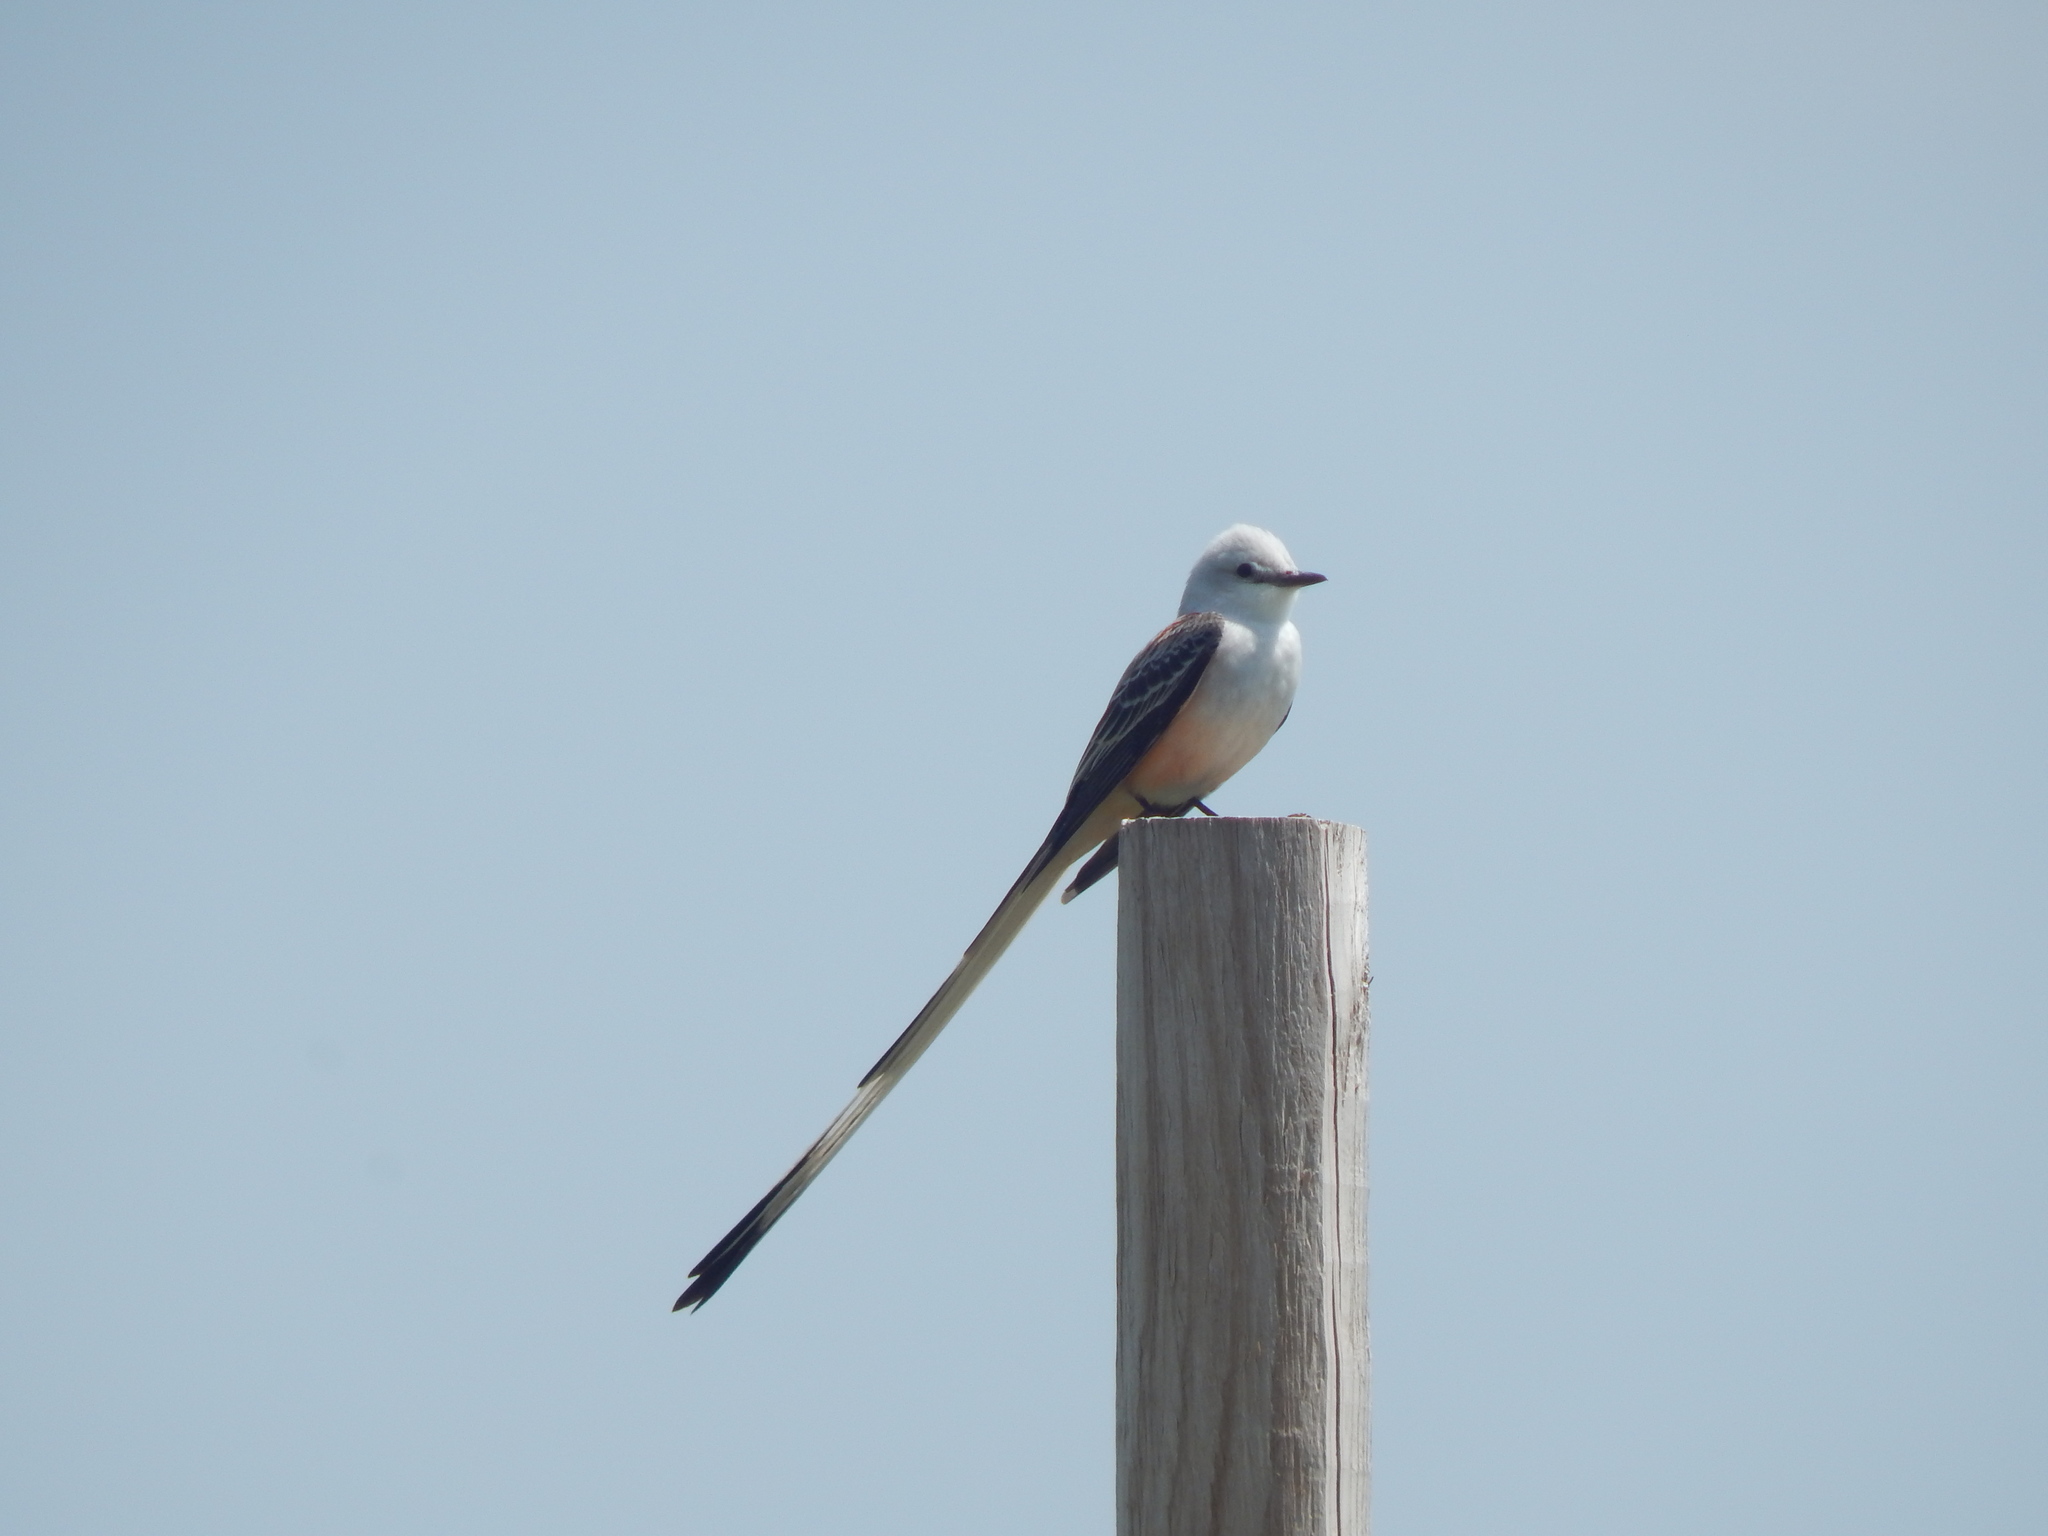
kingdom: Animalia
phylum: Chordata
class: Aves
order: Passeriformes
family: Tyrannidae
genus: Tyrannus
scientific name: Tyrannus forficatus
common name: Scissor-tailed flycatcher
